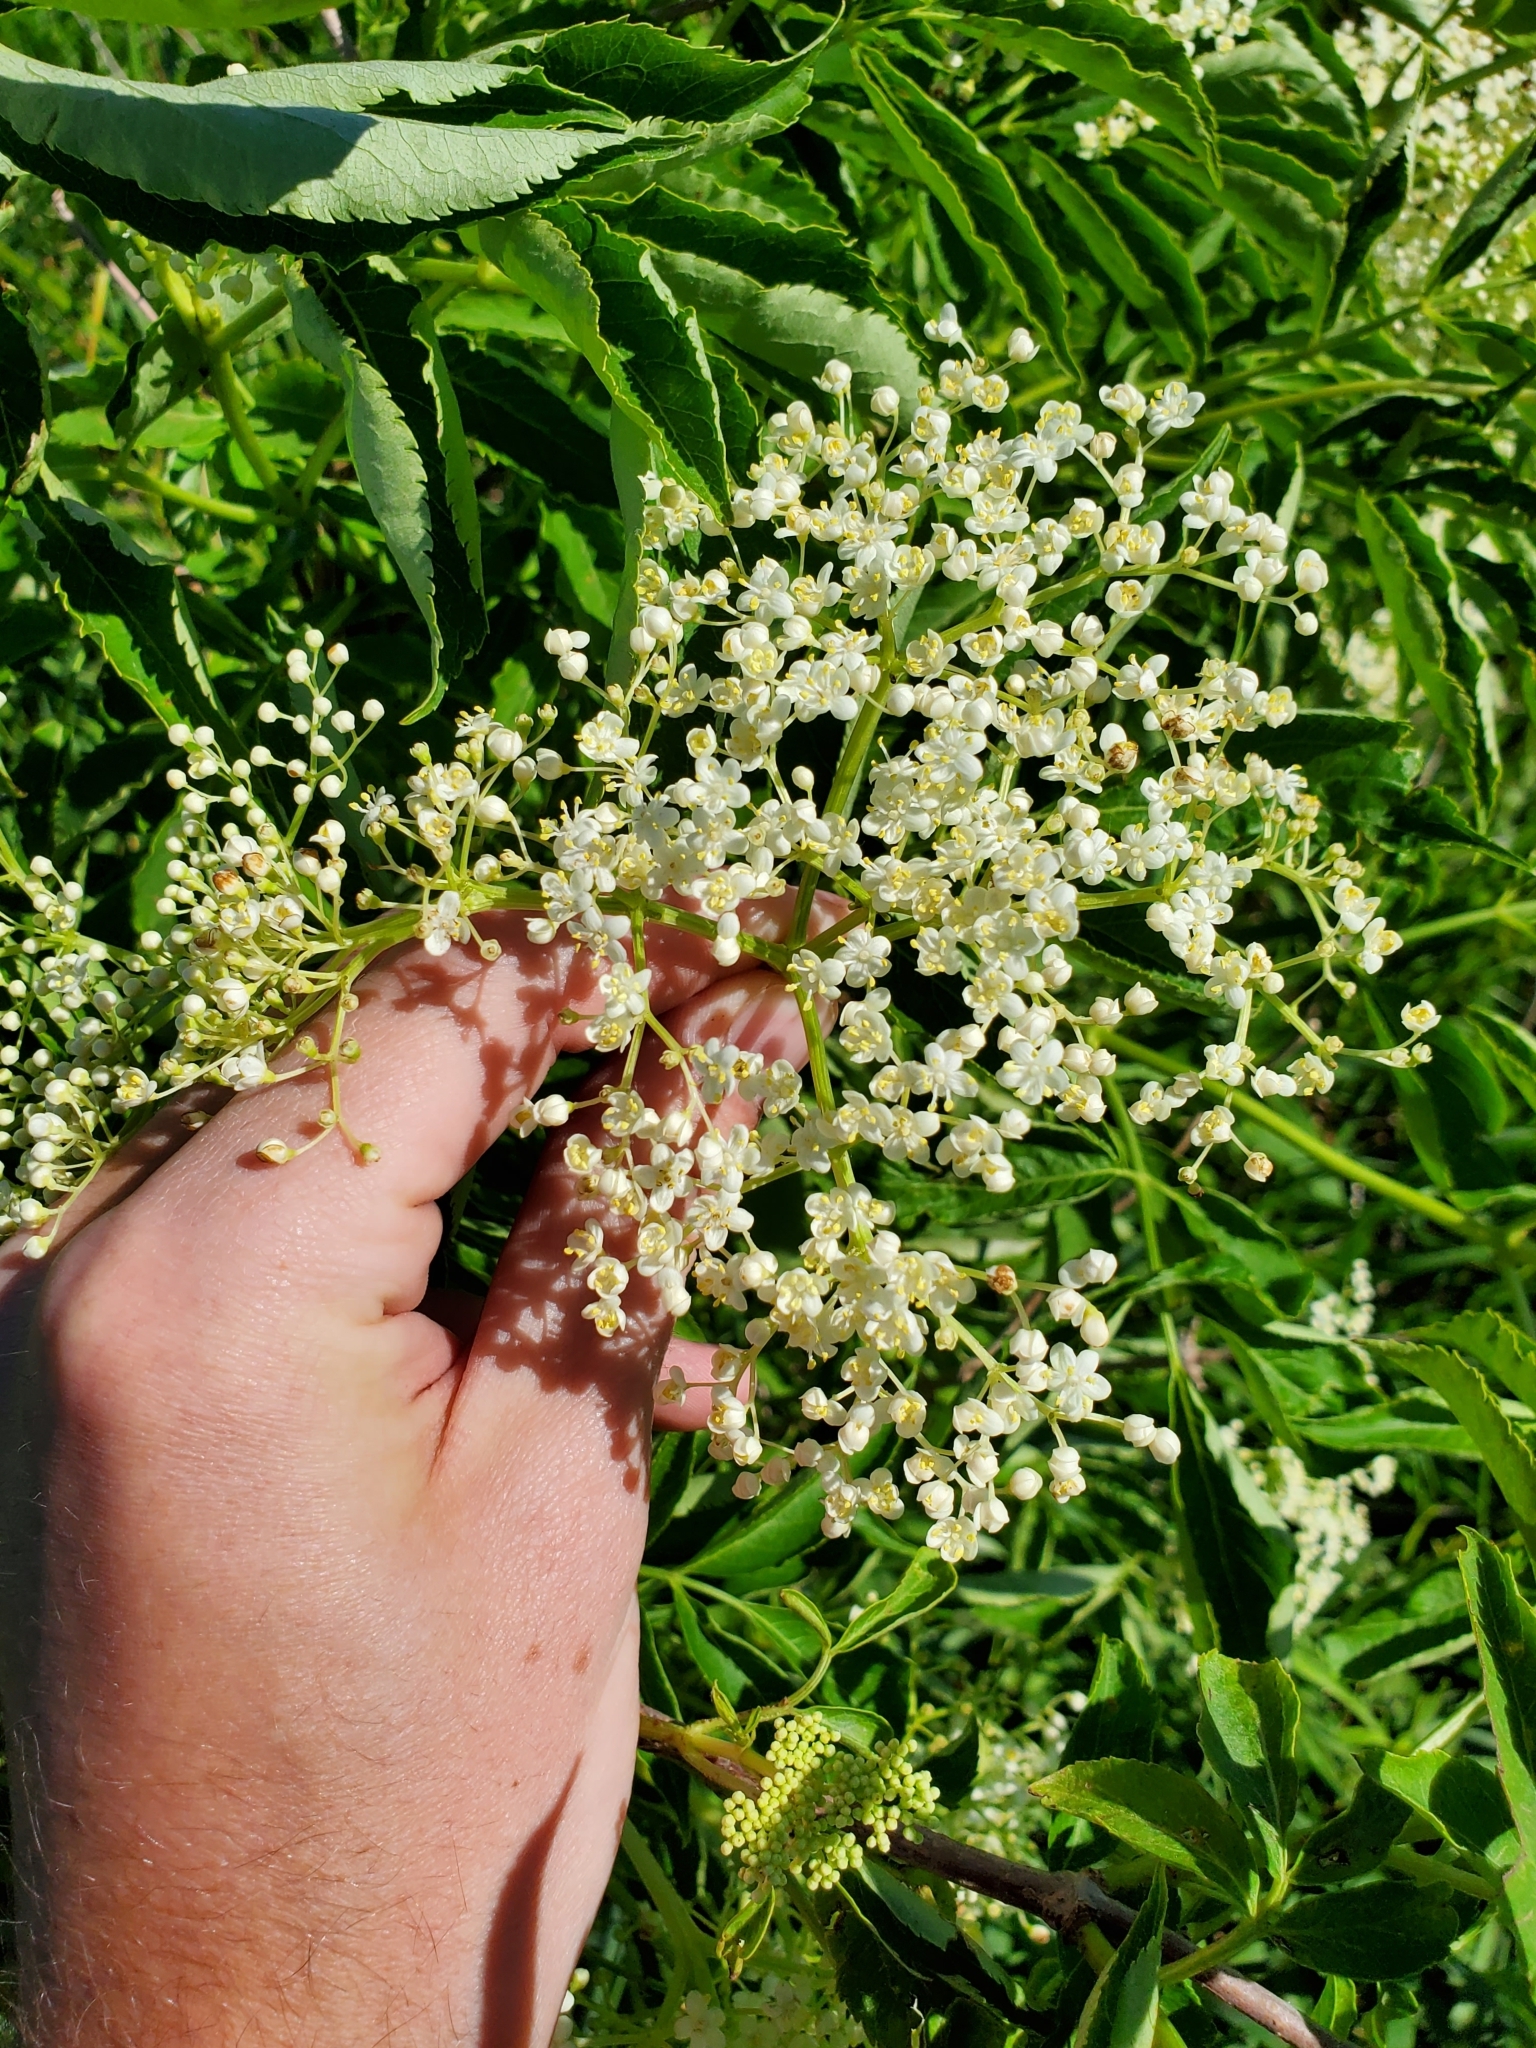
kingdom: Plantae
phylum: Tracheophyta
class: Magnoliopsida
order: Dipsacales
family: Viburnaceae
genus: Sambucus
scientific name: Sambucus canadensis
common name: American elder
